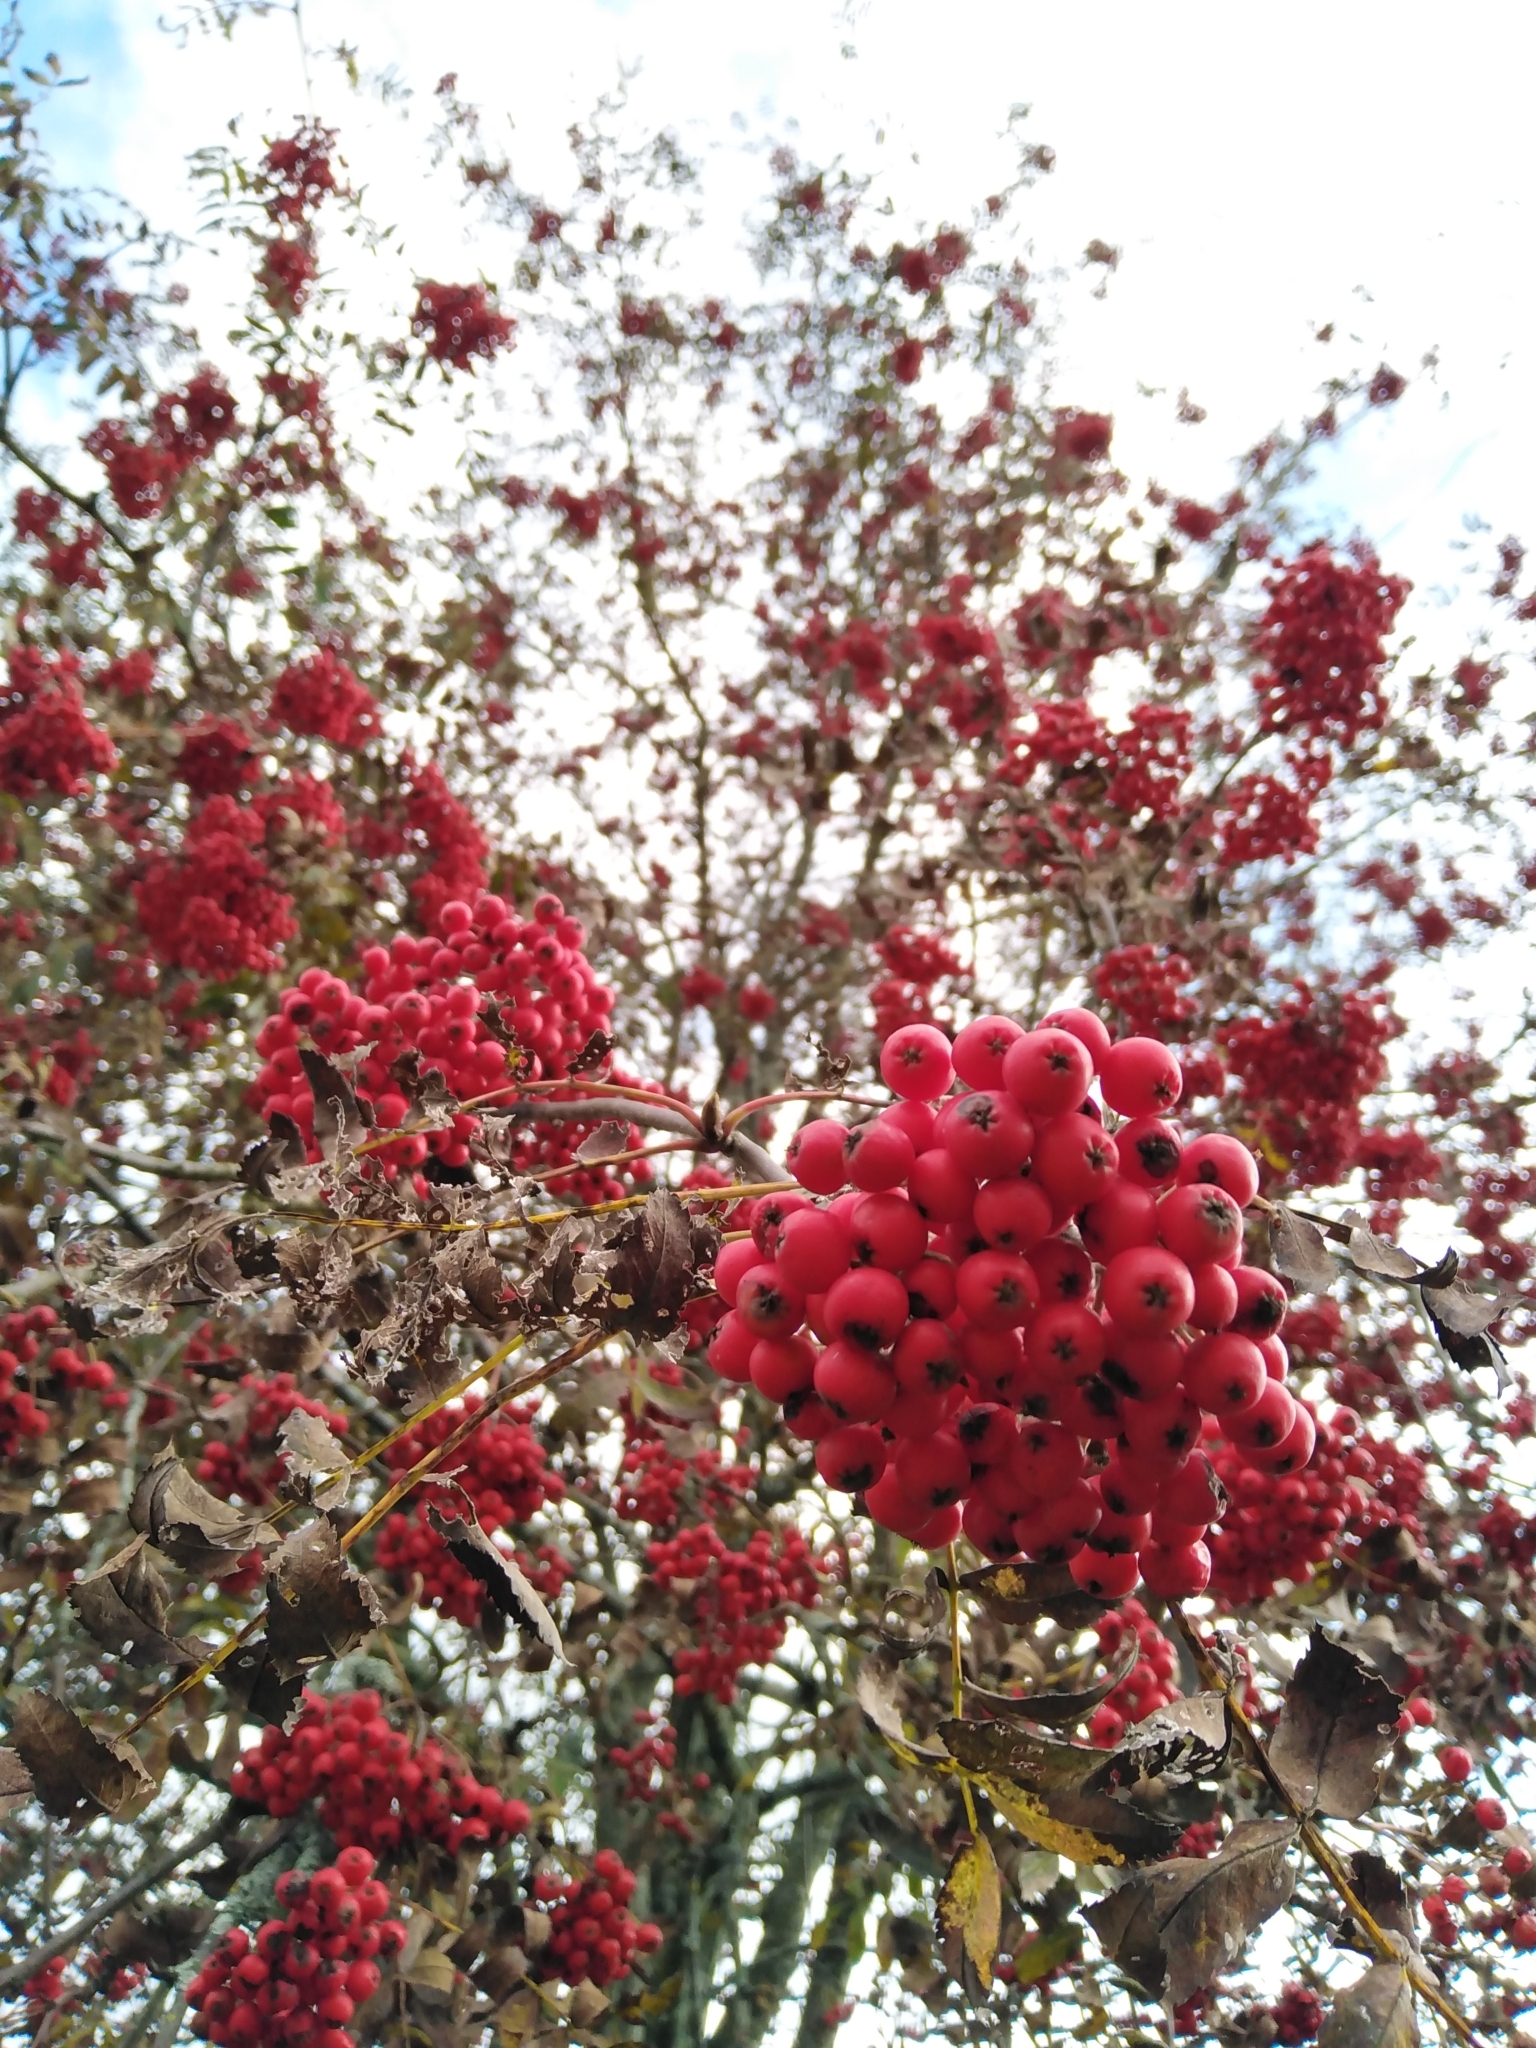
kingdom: Plantae
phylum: Tracheophyta
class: Magnoliopsida
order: Rosales
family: Rosaceae
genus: Sorbus
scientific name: Sorbus aucuparia
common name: Rowan
